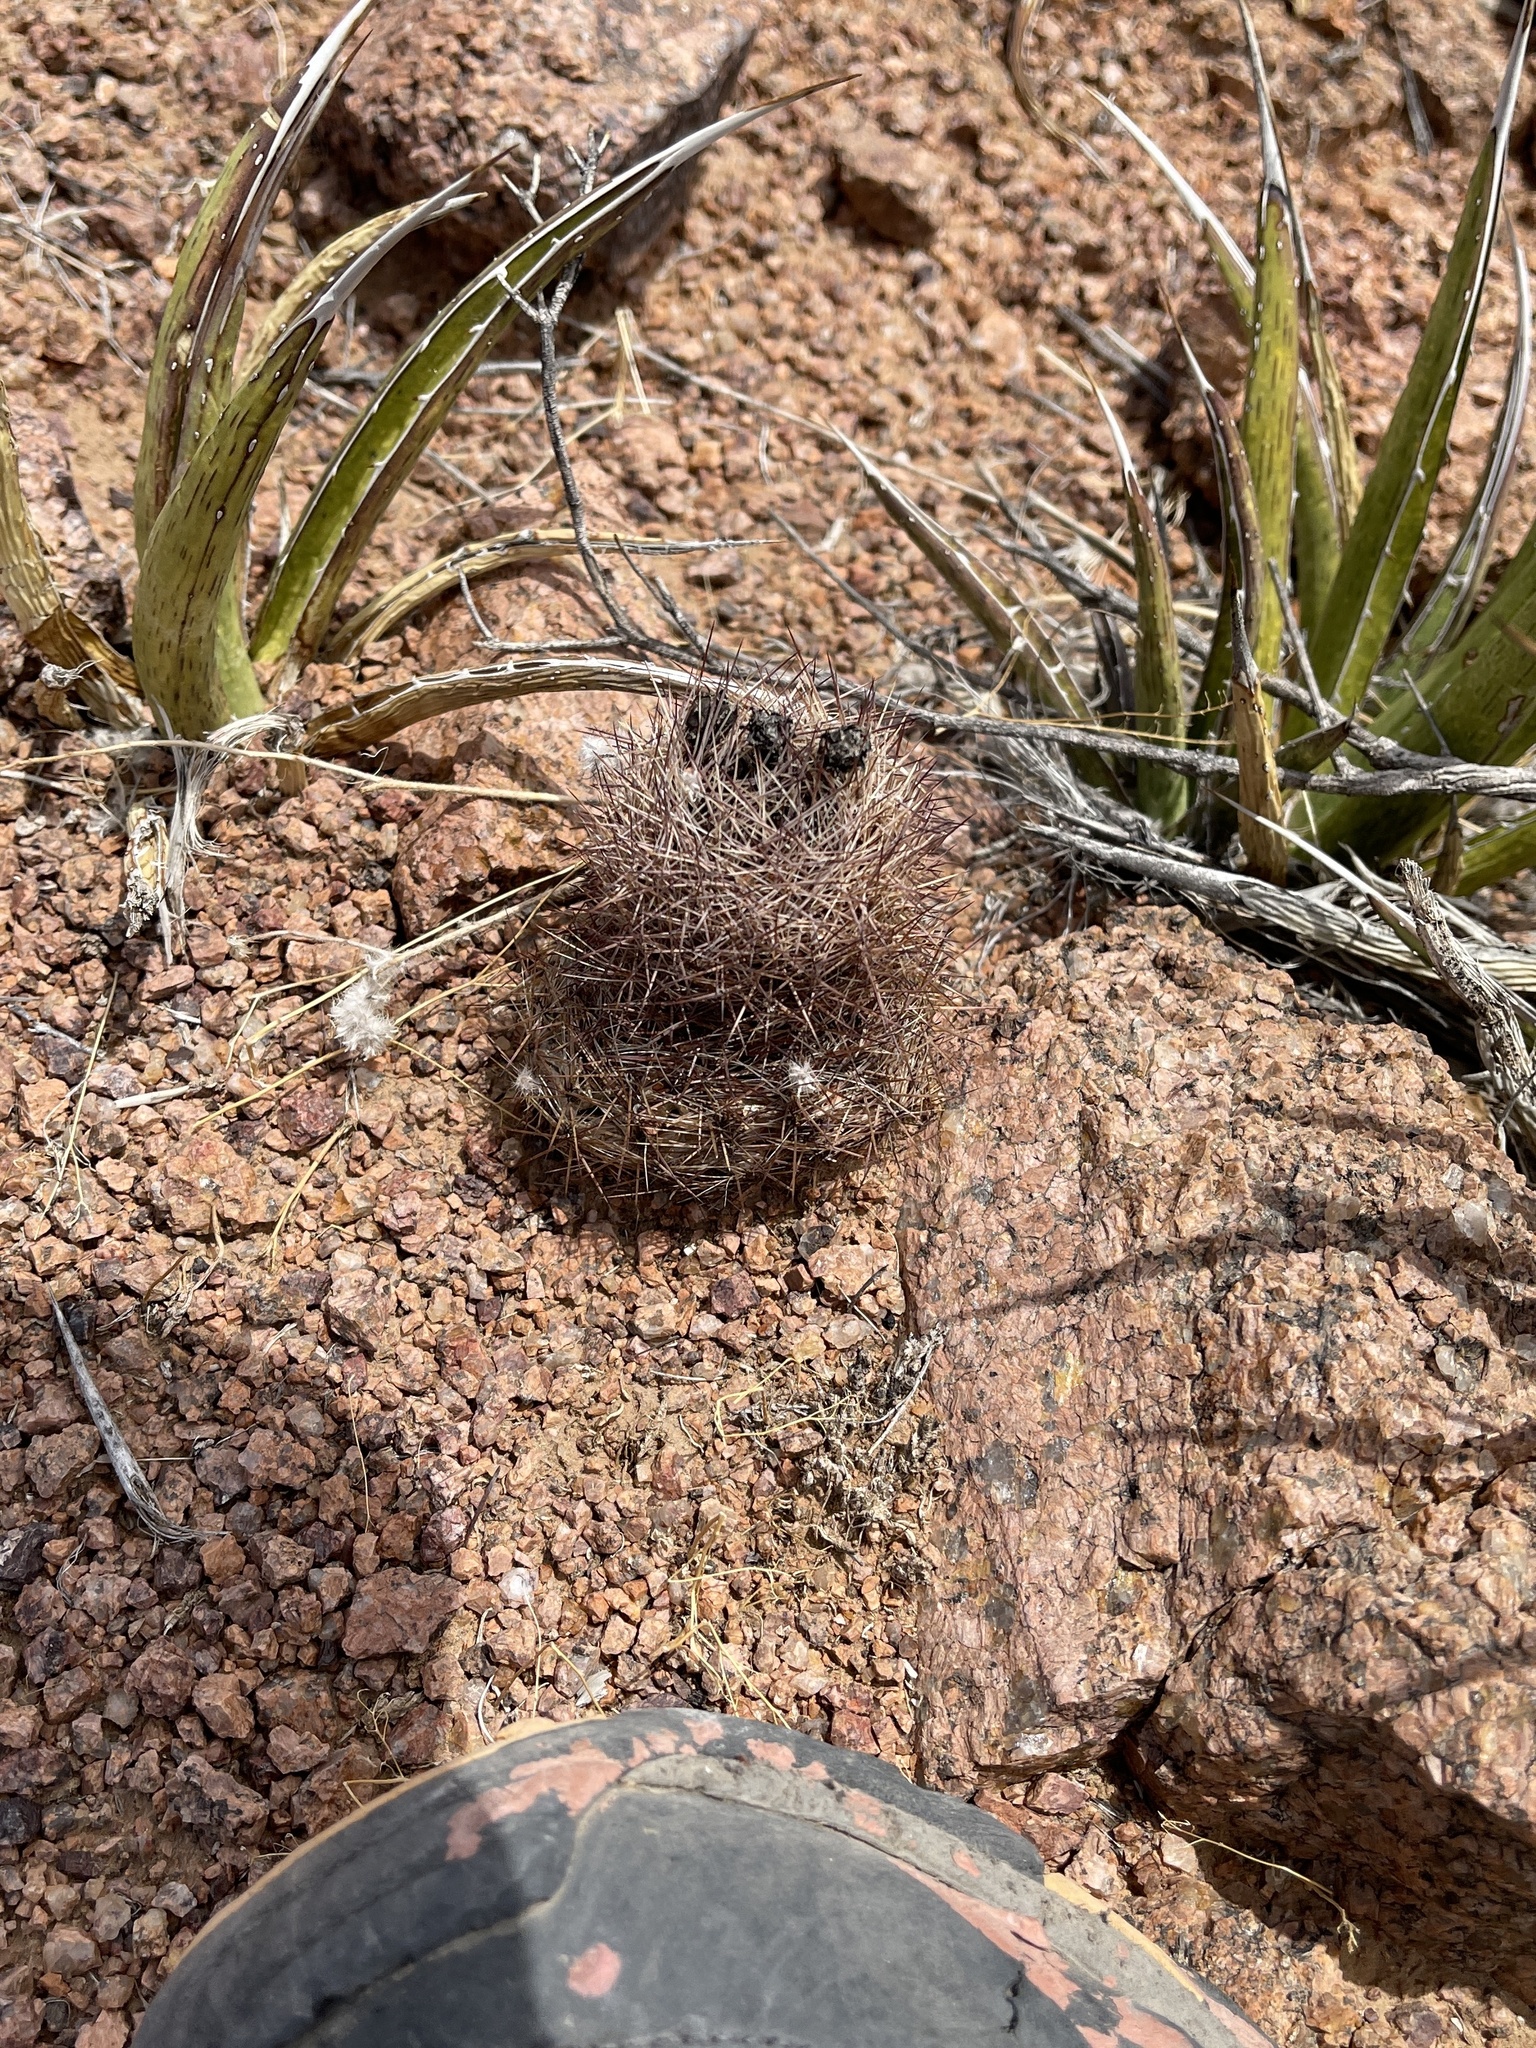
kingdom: Plantae
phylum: Tracheophyta
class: Magnoliopsida
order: Caryophyllales
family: Cactaceae
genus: Sclerocactus
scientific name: Sclerocactus intertextus
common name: White fish-hook cactus
